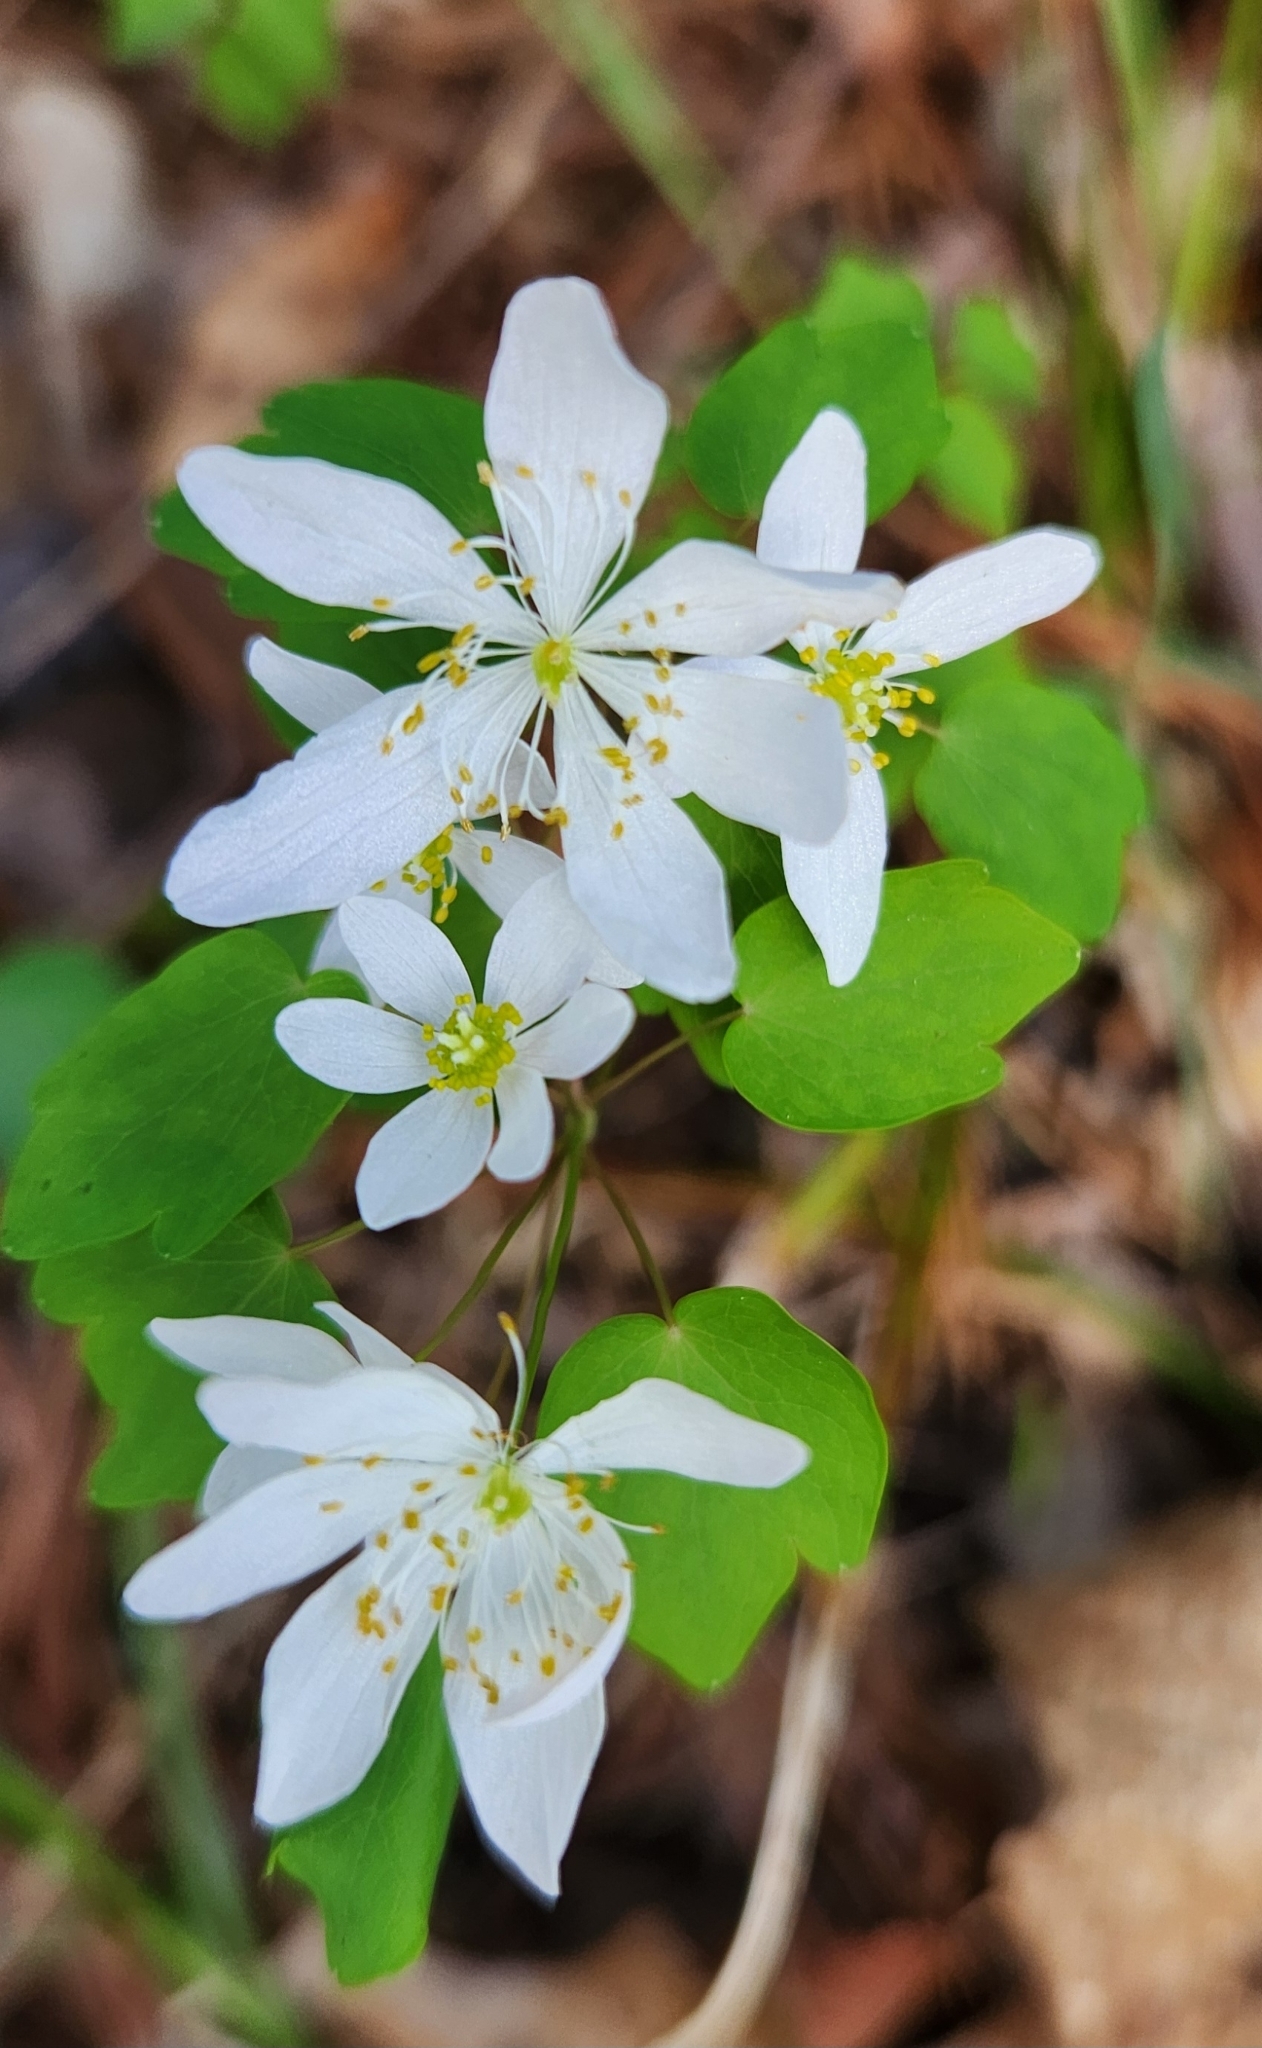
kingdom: Plantae
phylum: Tracheophyta
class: Magnoliopsida
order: Ranunculales
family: Ranunculaceae
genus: Thalictrum
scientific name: Thalictrum thalictroides
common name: Rue-anemone
